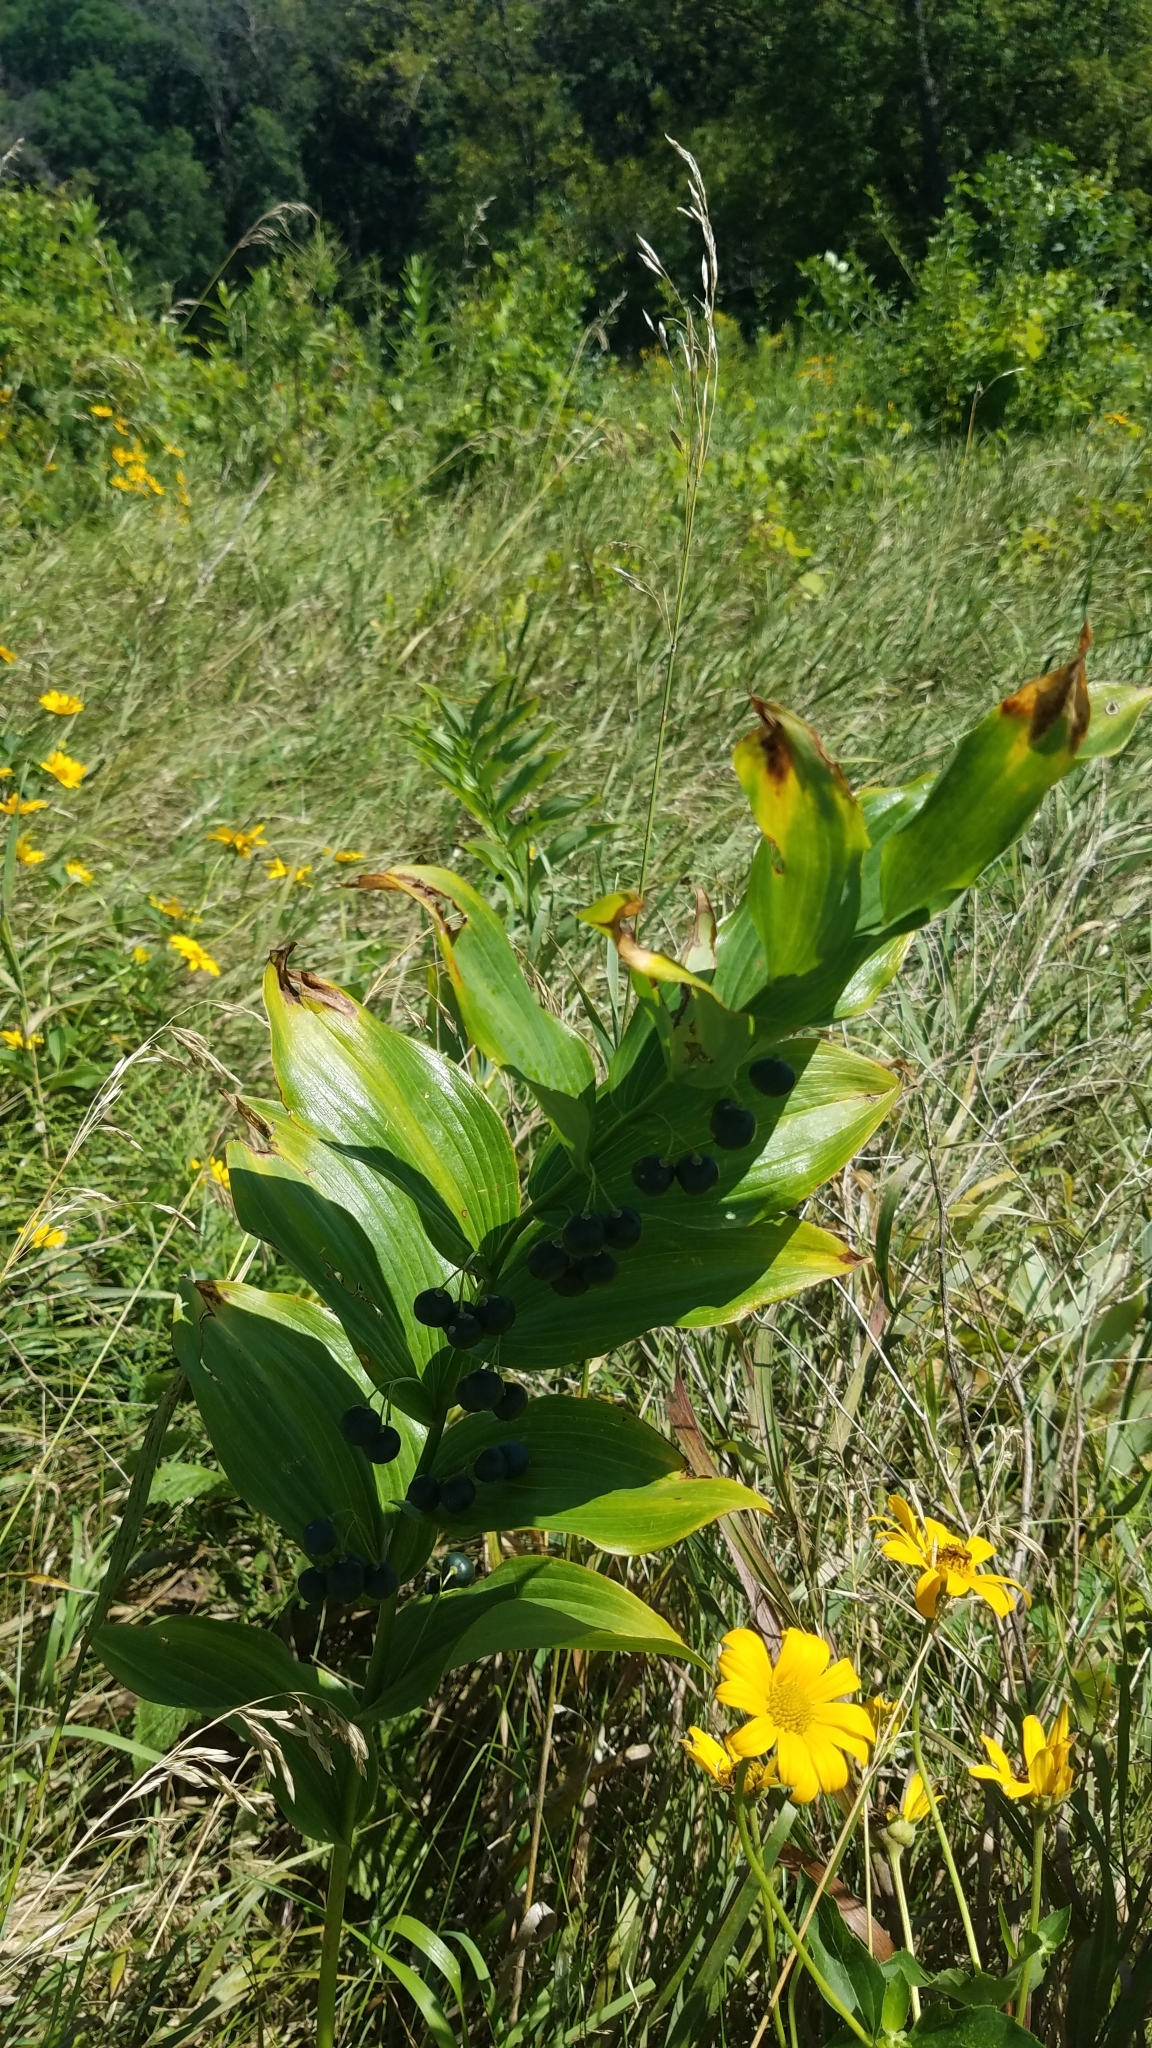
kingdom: Plantae
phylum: Tracheophyta
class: Liliopsida
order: Asparagales
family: Asparagaceae
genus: Polygonatum
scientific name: Polygonatum biflorum
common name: American solomon's-seal
